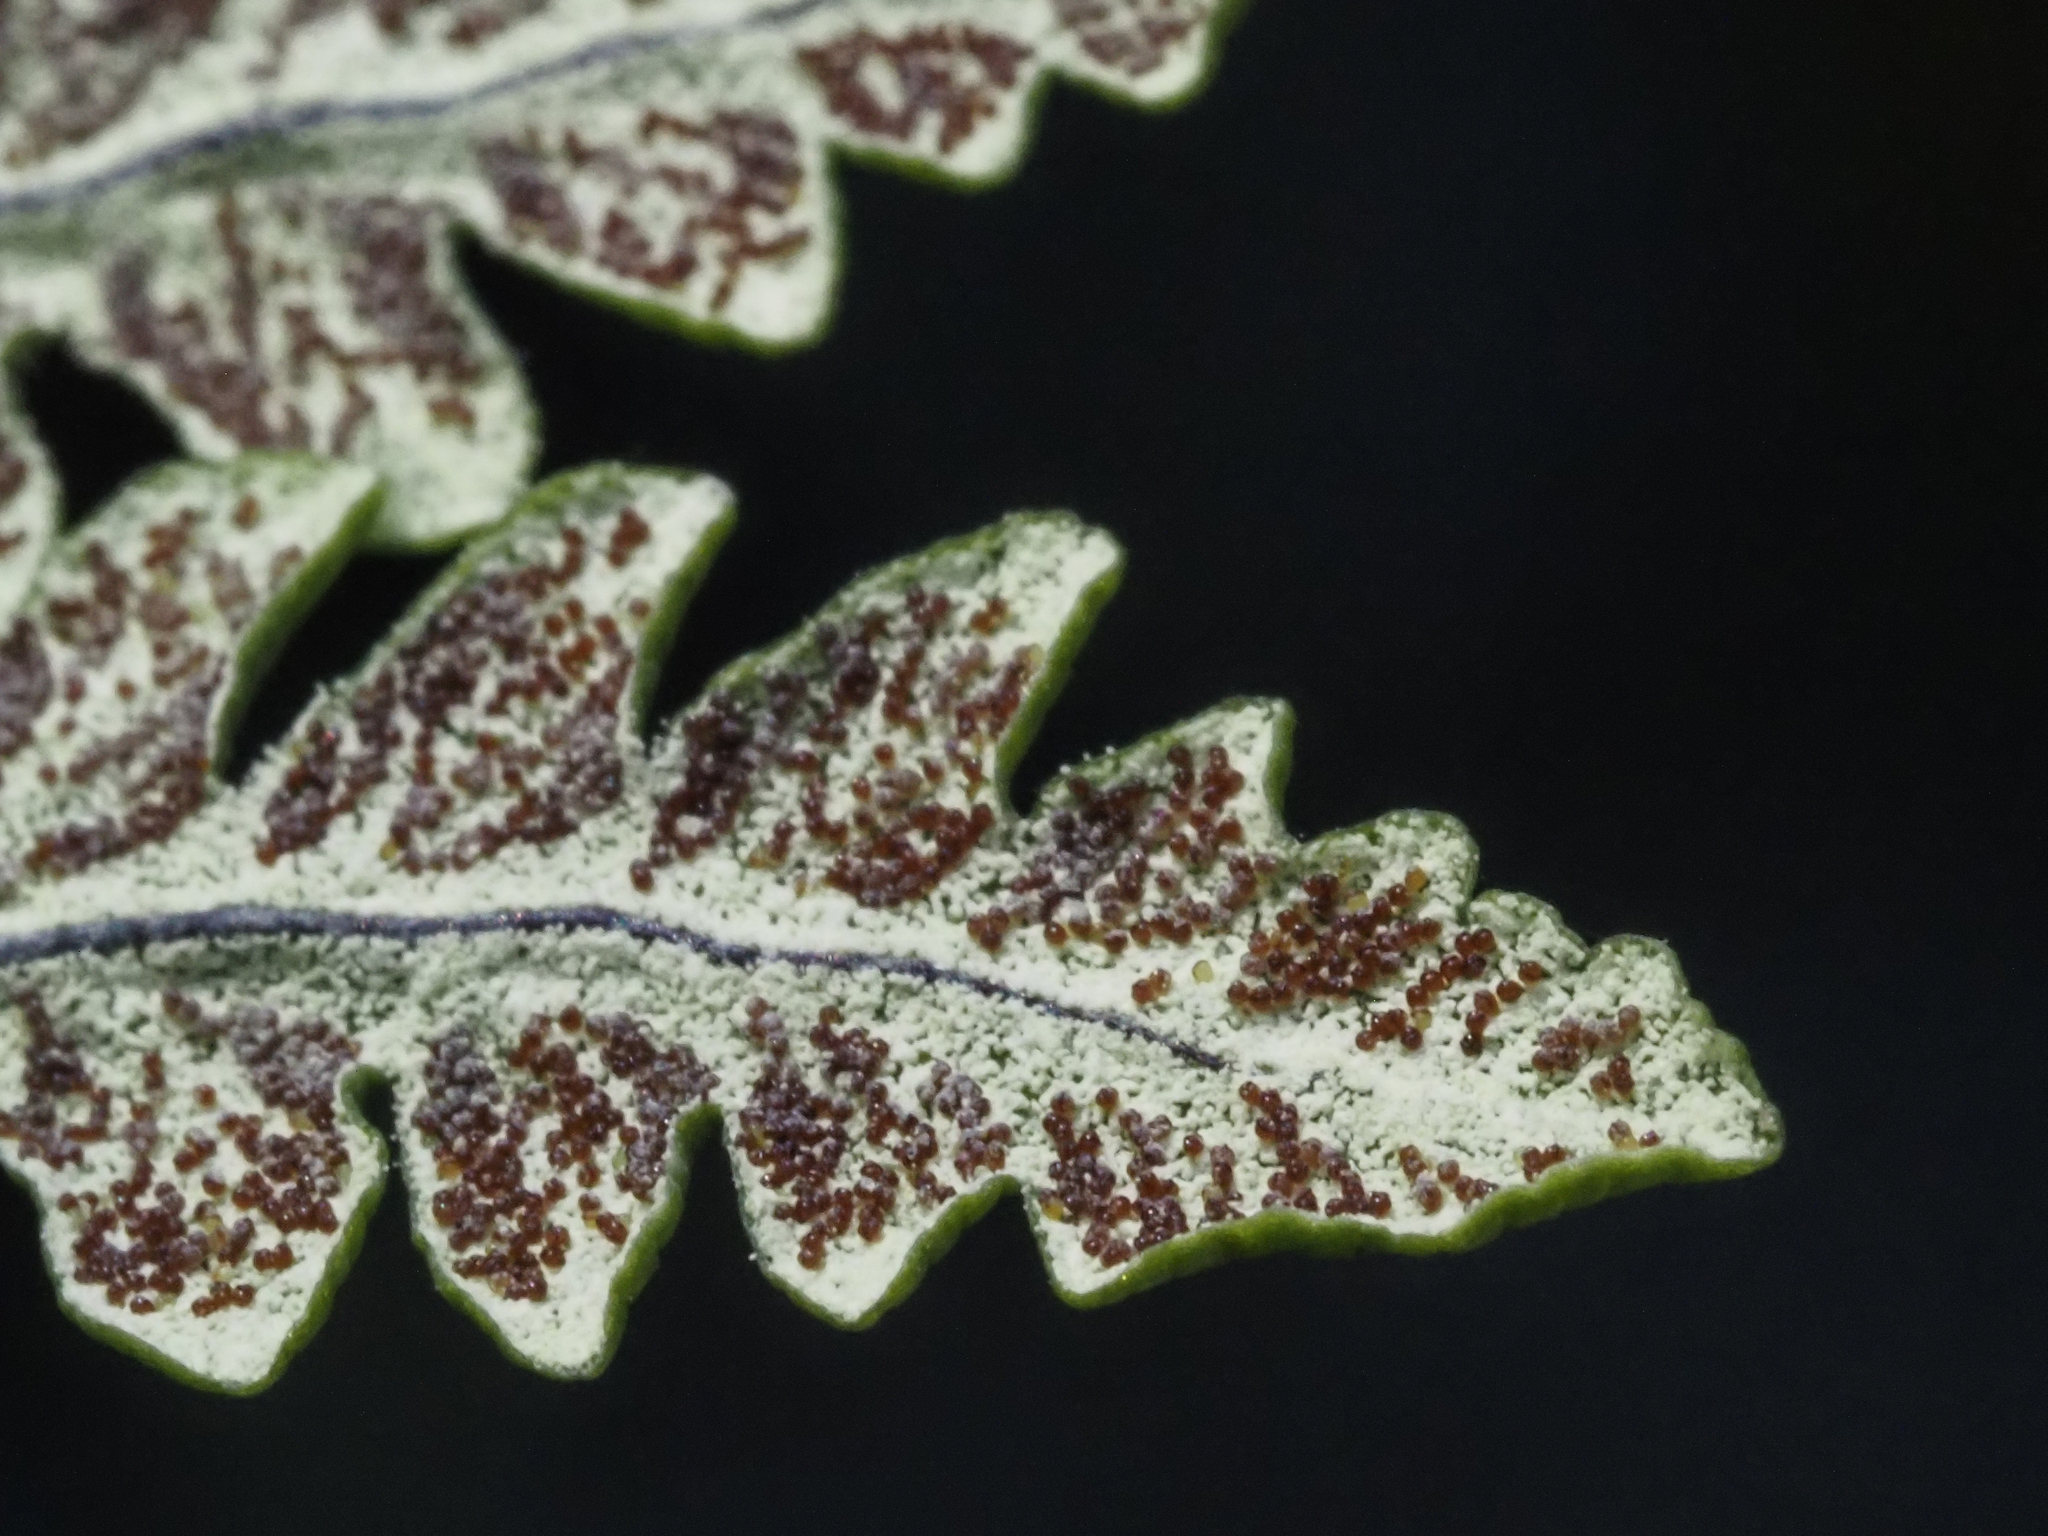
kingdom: Plantae
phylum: Tracheophyta
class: Polypodiopsida
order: Polypodiales
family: Pteridaceae
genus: Pentagramma
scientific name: Pentagramma triangularis
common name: Gold fern
